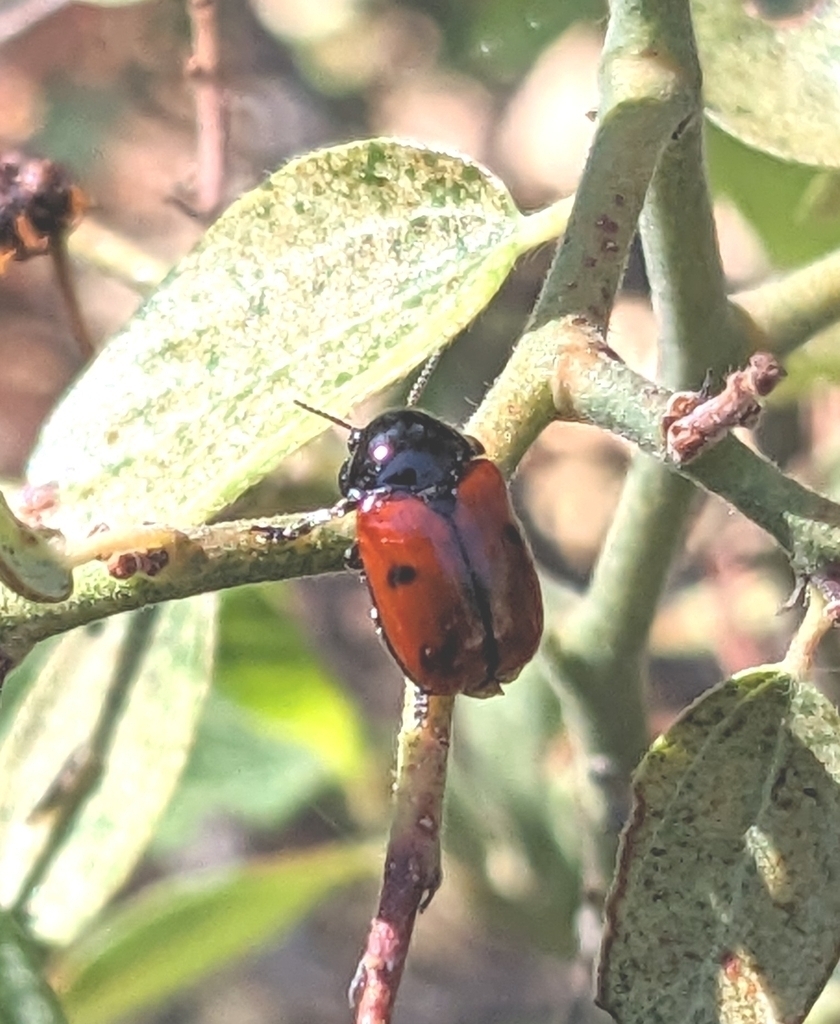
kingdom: Animalia
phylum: Arthropoda
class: Insecta
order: Coleoptera
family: Chrysomelidae
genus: Urodera
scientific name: Urodera dilaticollis
